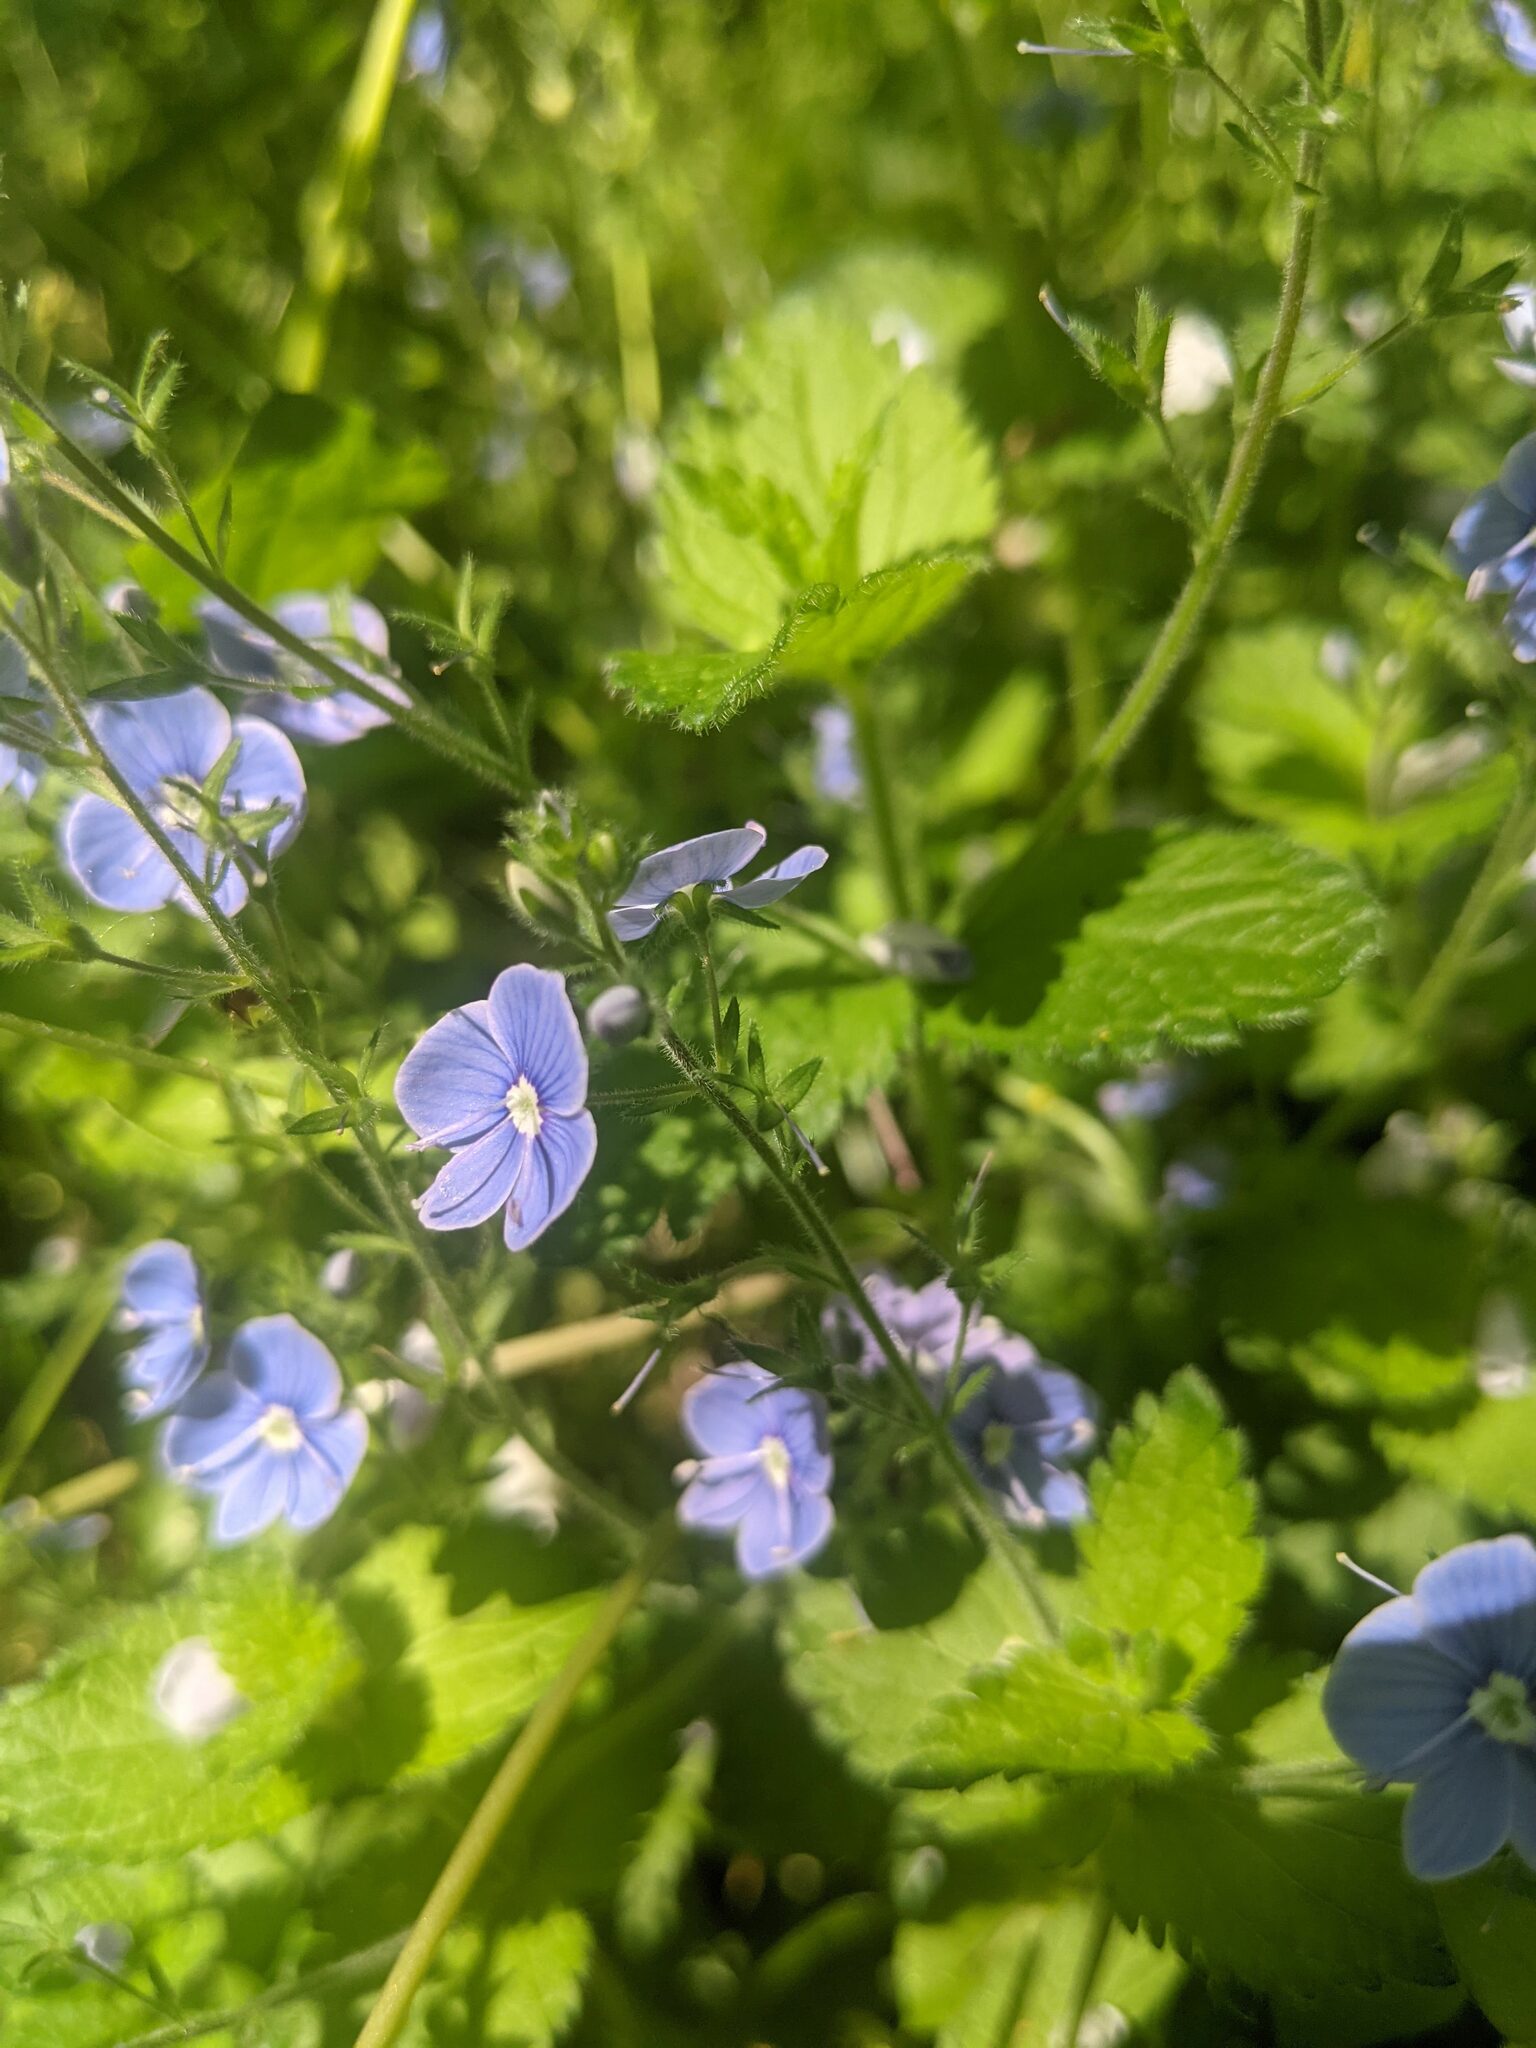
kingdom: Plantae
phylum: Tracheophyta
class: Magnoliopsida
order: Lamiales
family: Plantaginaceae
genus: Veronica
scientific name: Veronica chamaedrys
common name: Germander speedwell
